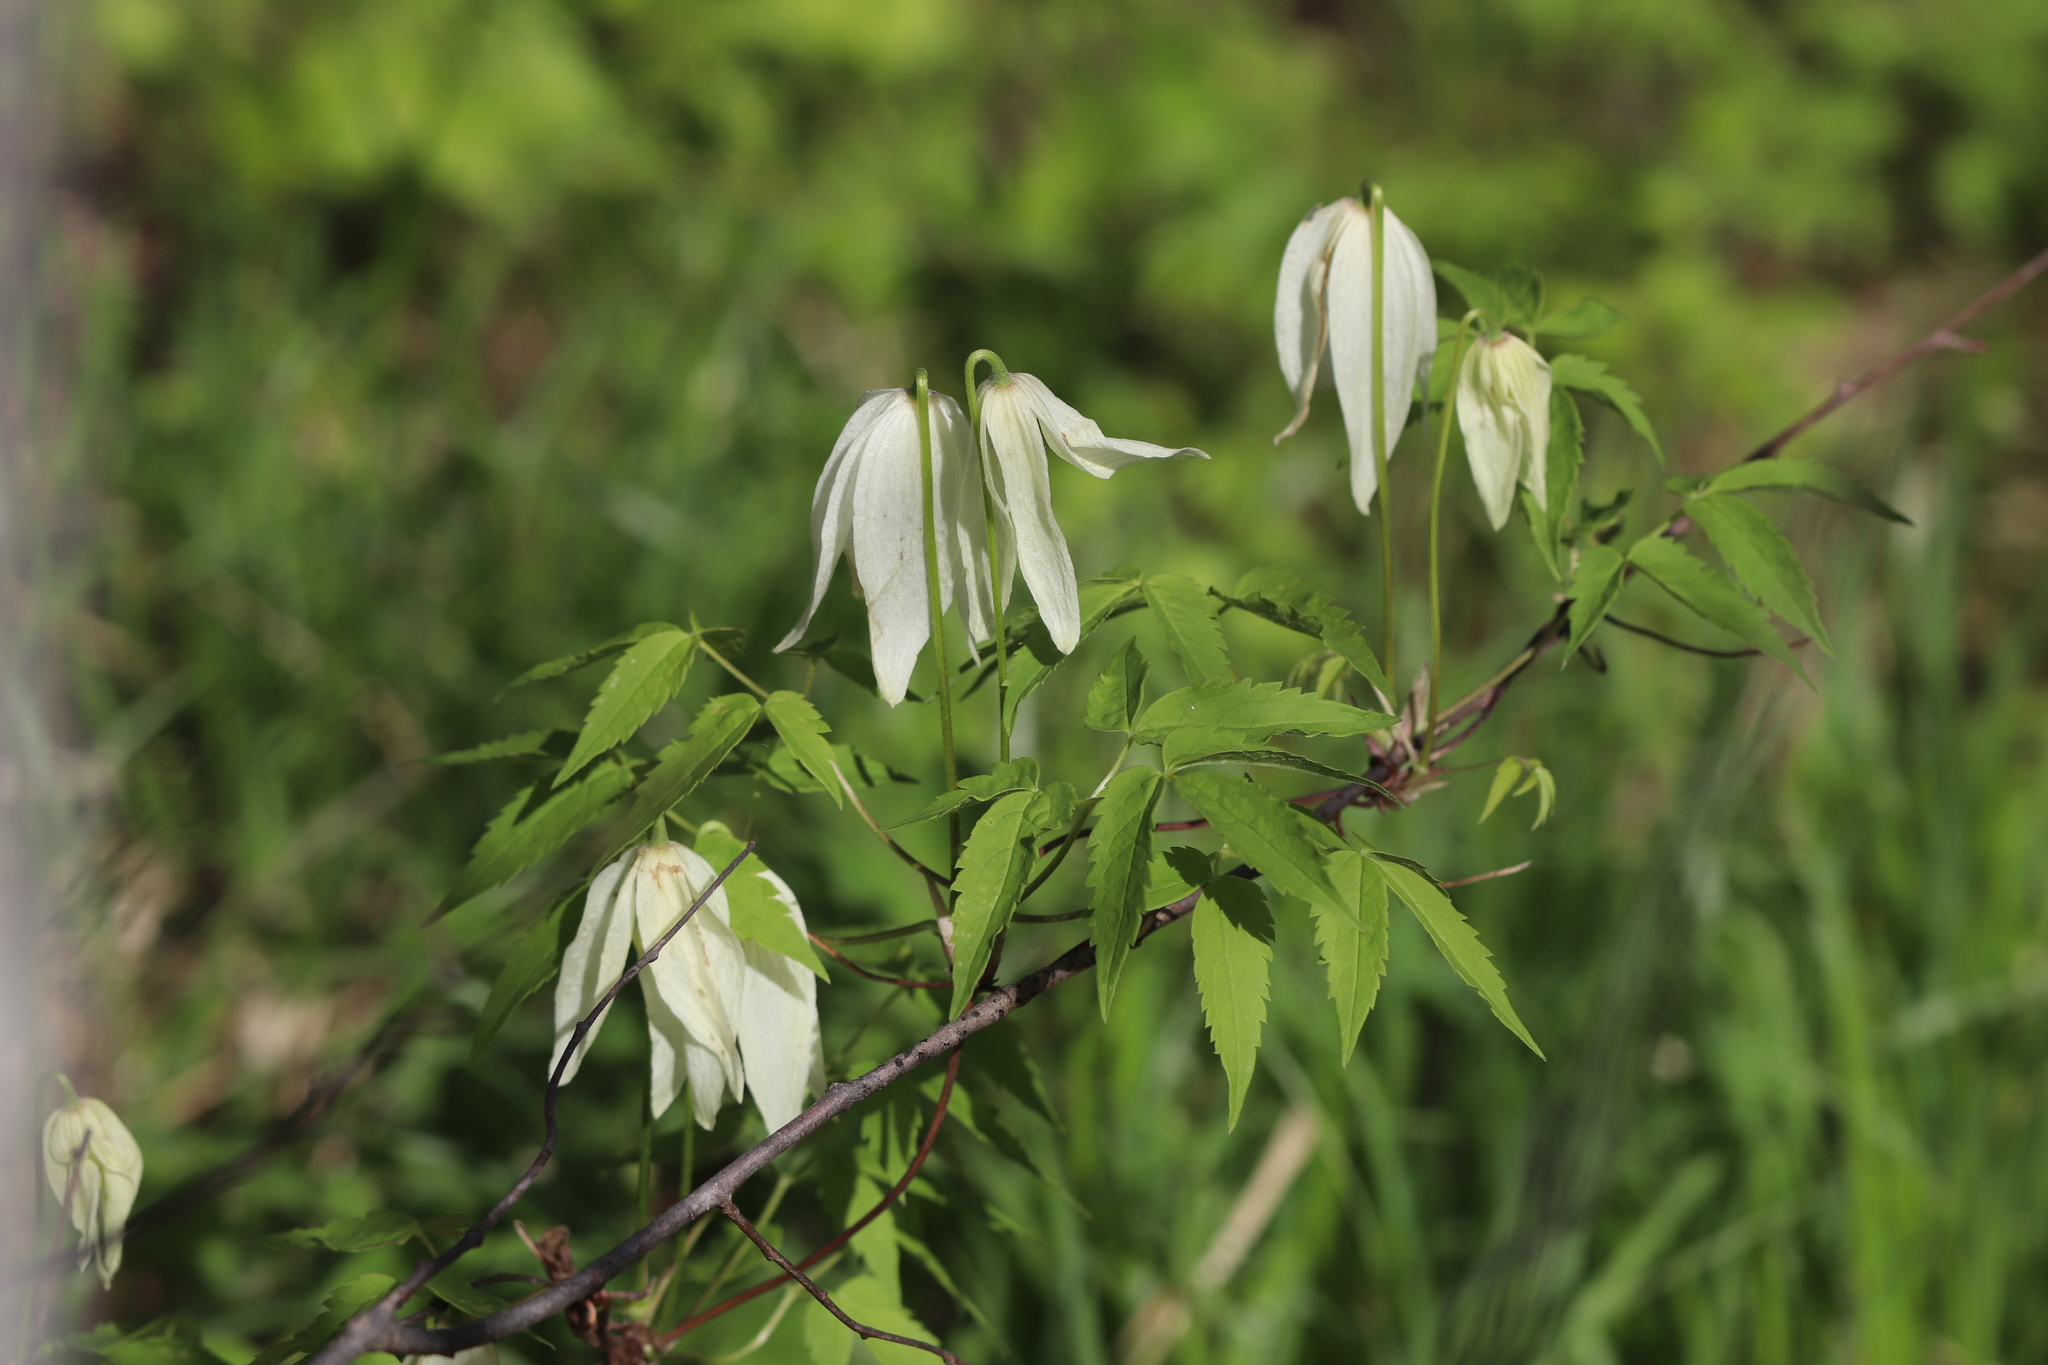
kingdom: Plantae
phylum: Tracheophyta
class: Magnoliopsida
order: Ranunculales
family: Ranunculaceae
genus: Clematis
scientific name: Clematis sibirica
